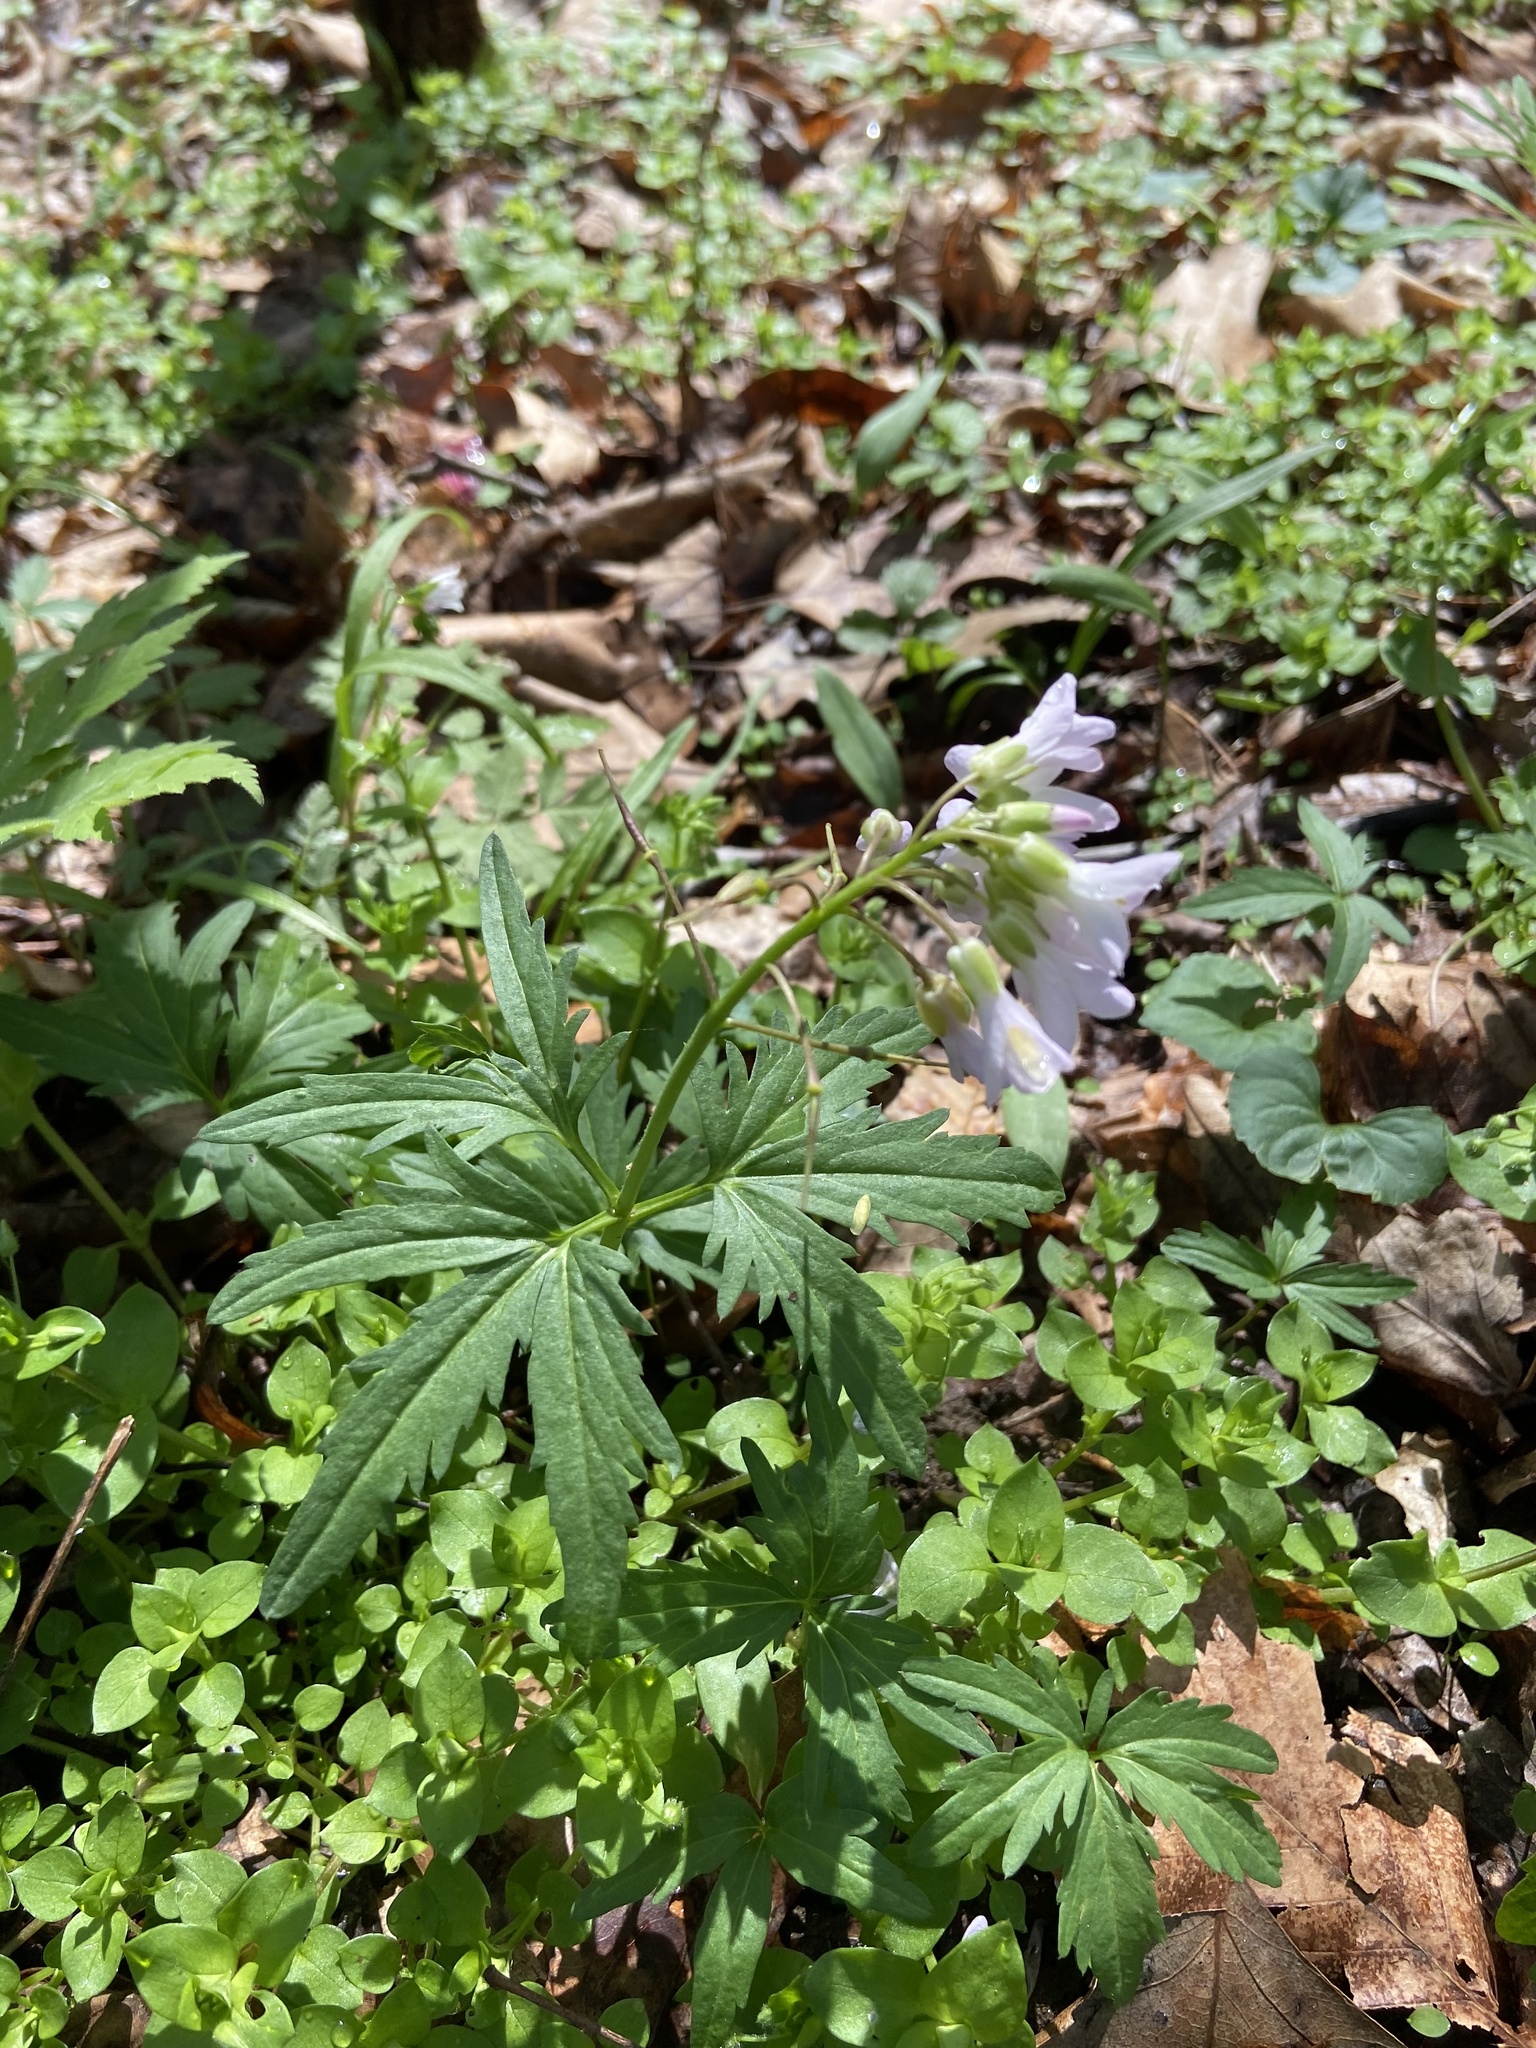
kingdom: Plantae
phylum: Tracheophyta
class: Magnoliopsida
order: Brassicales
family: Brassicaceae
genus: Cardamine
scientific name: Cardamine concatenata
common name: Cut-leaf toothcup
